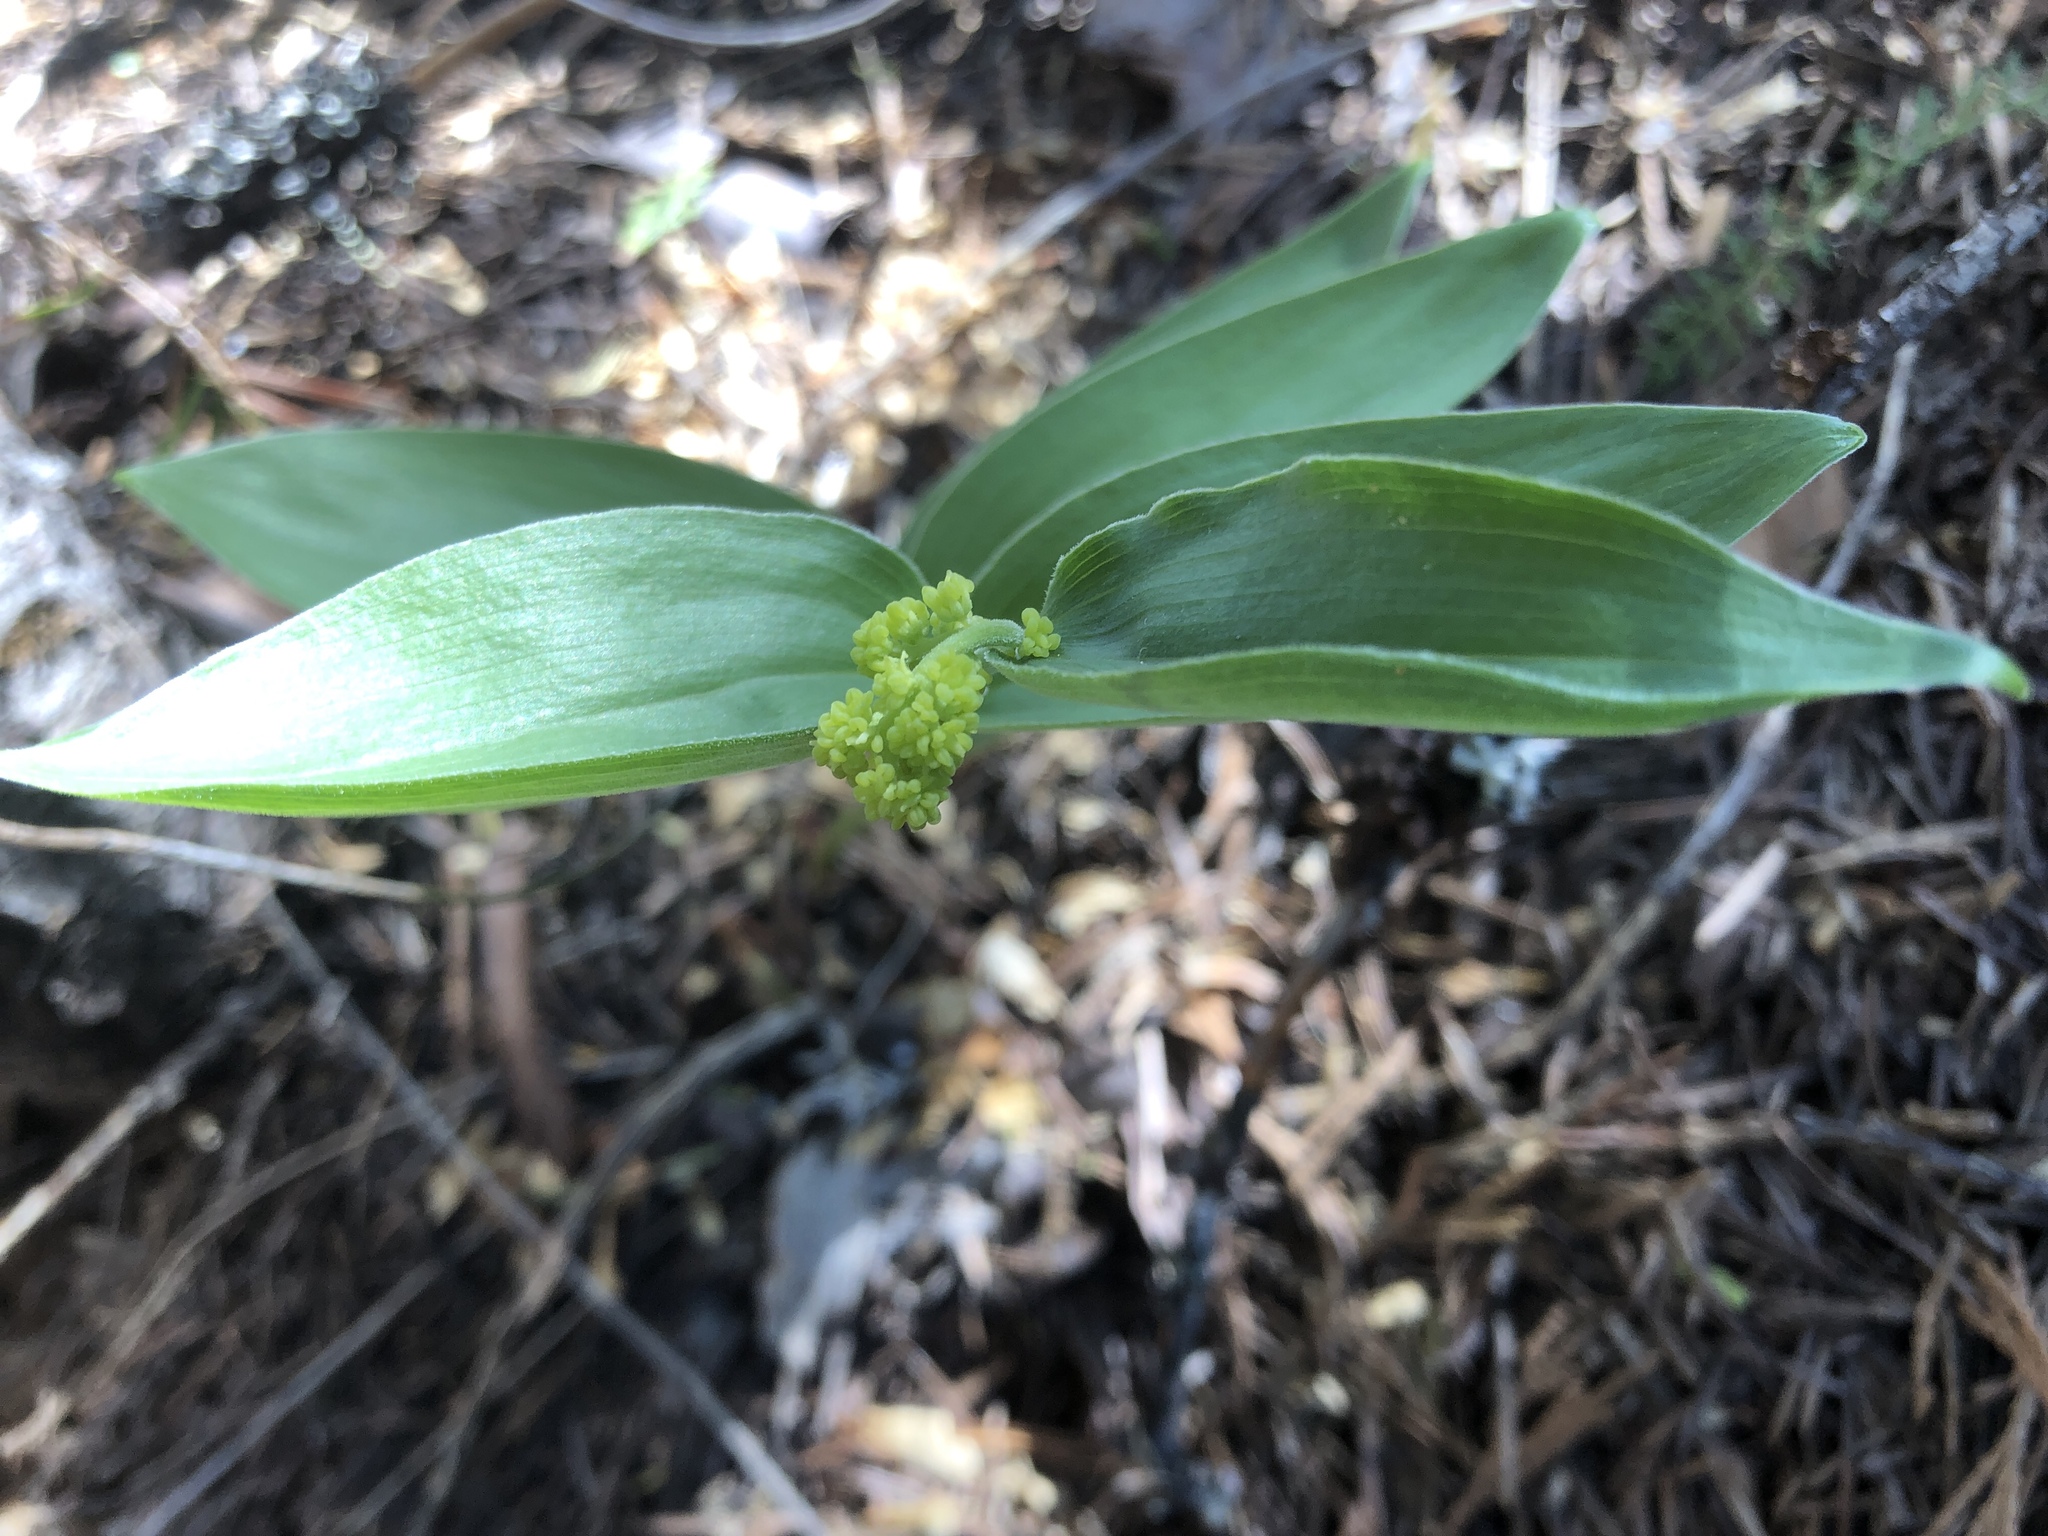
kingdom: Plantae
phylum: Tracheophyta
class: Liliopsida
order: Asparagales
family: Asparagaceae
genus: Maianthemum
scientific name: Maianthemum racemosum
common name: False spikenard
